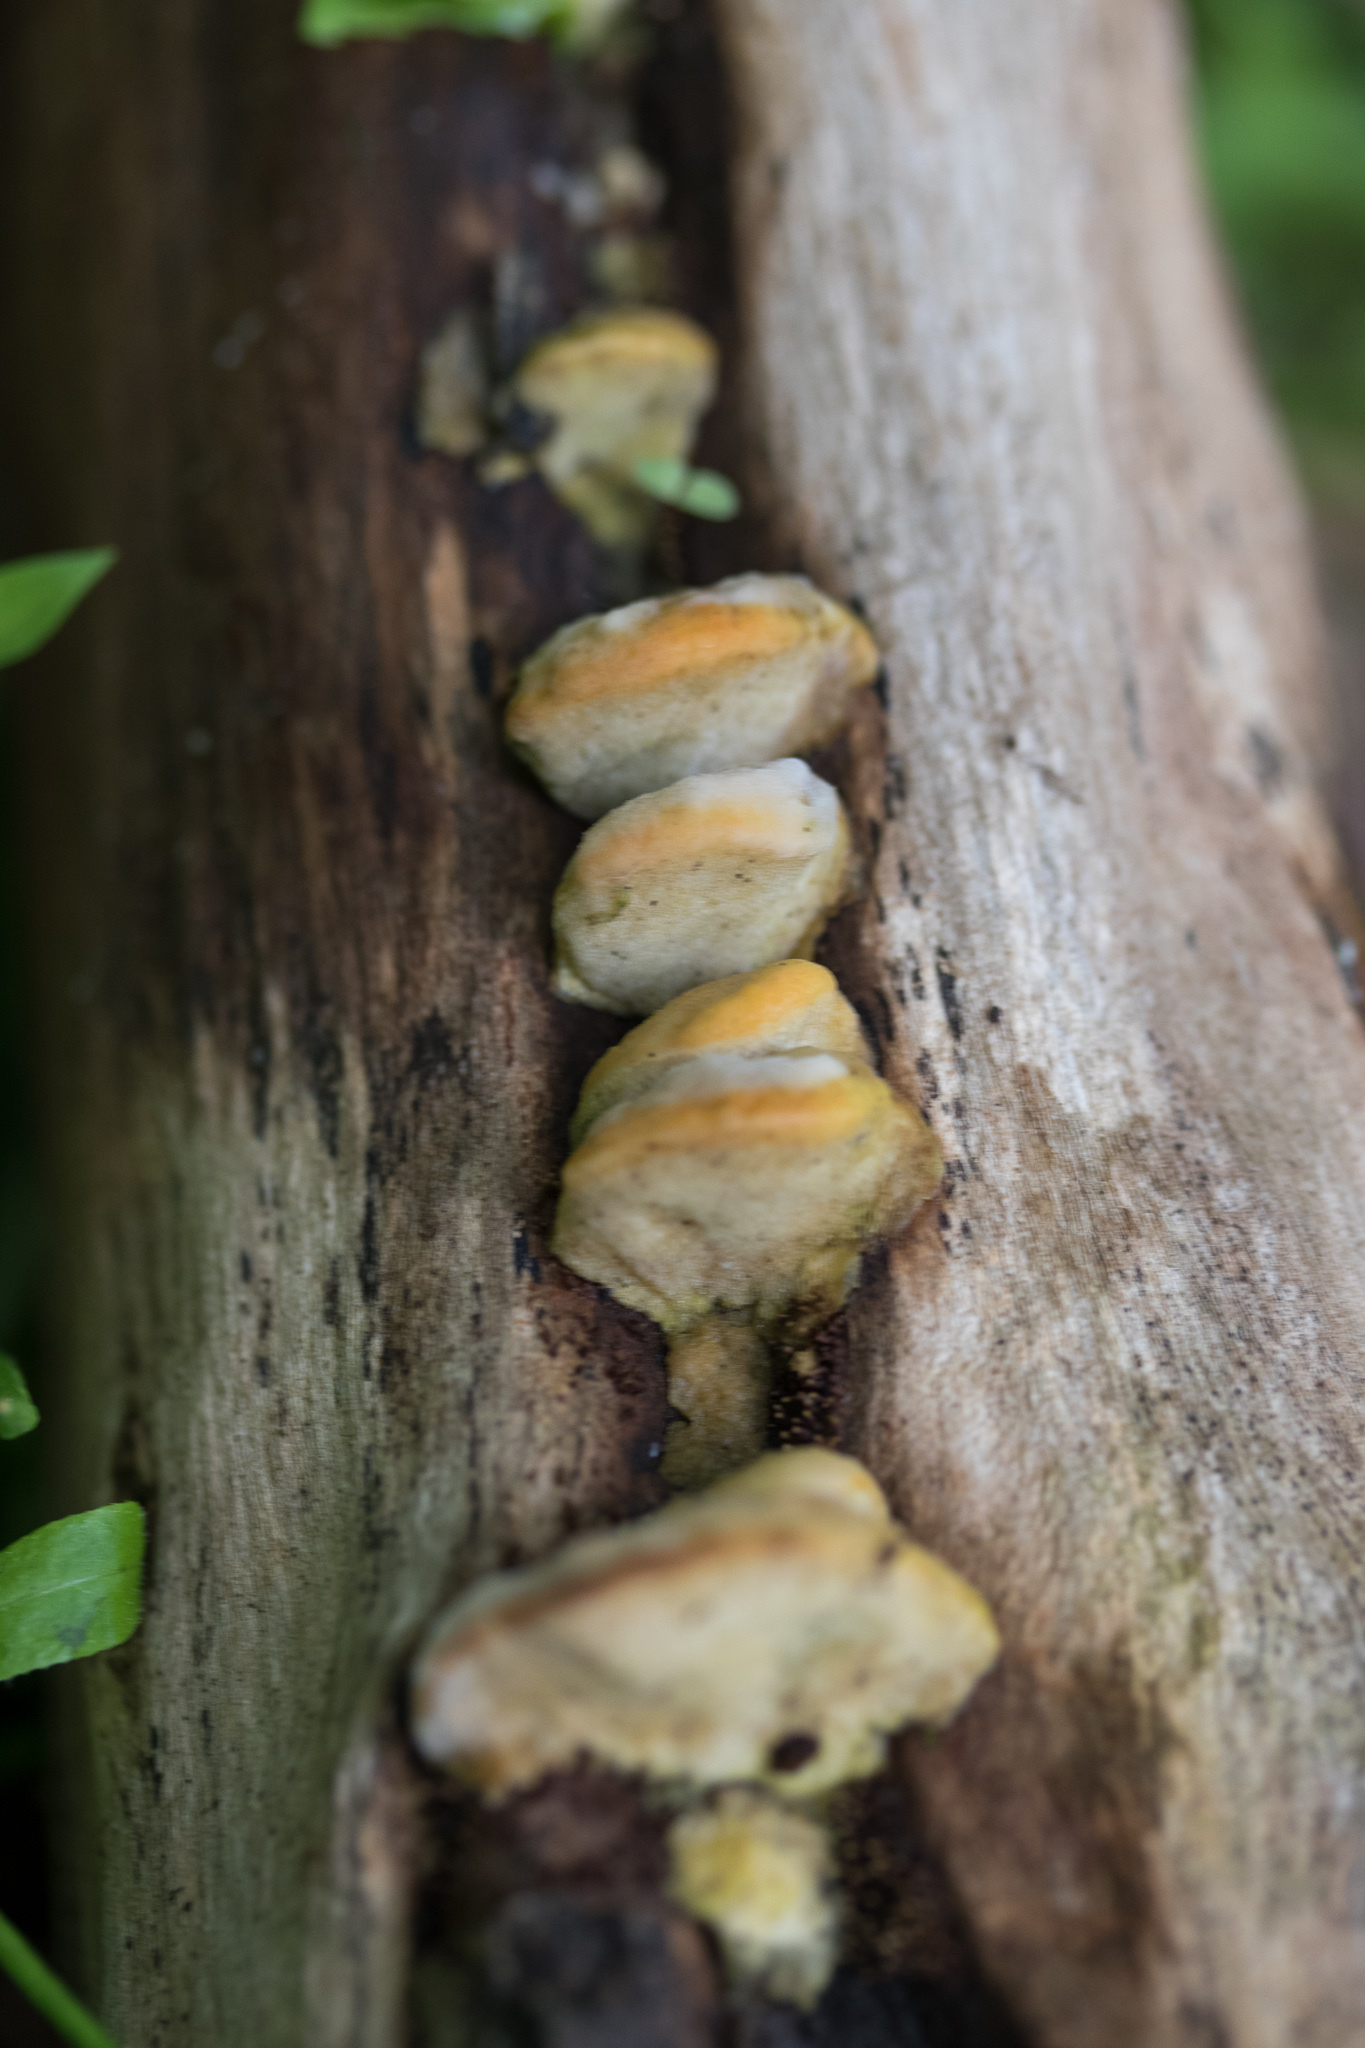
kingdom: Fungi
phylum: Basidiomycota
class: Agaricomycetes
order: Polyporales
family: Fomitopsidaceae
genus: Niveoporofomes
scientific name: Niveoporofomes spraguei
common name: Green cheese polypore
